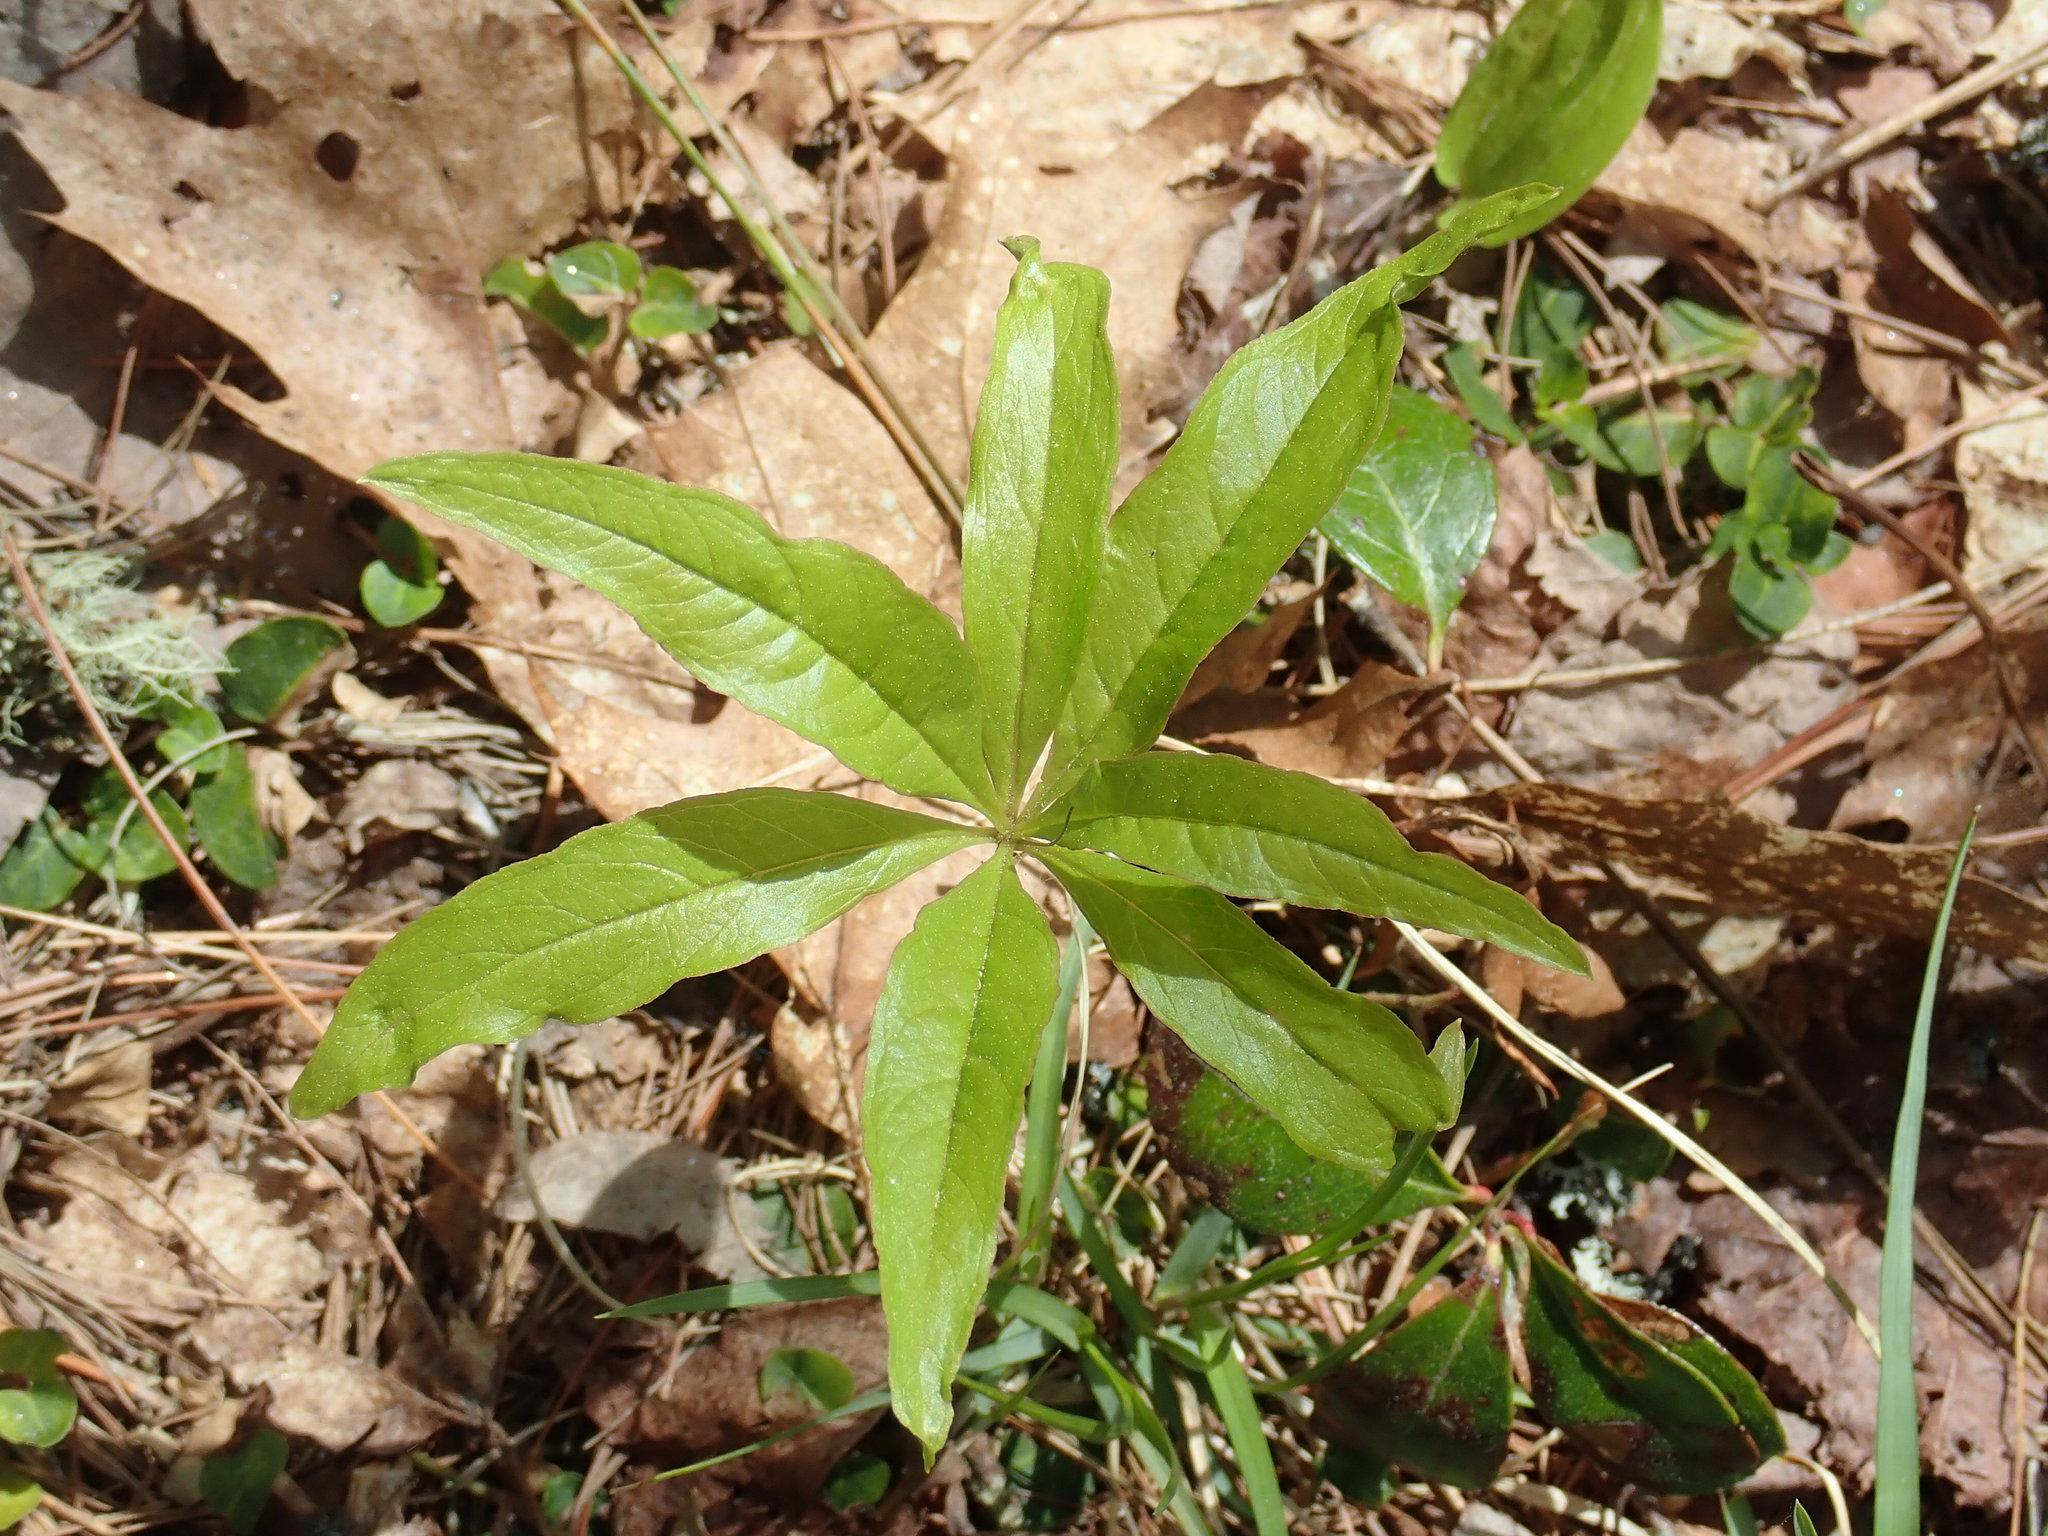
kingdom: Plantae
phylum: Tracheophyta
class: Magnoliopsida
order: Ericales
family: Primulaceae
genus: Lysimachia
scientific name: Lysimachia borealis
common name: American starflower
